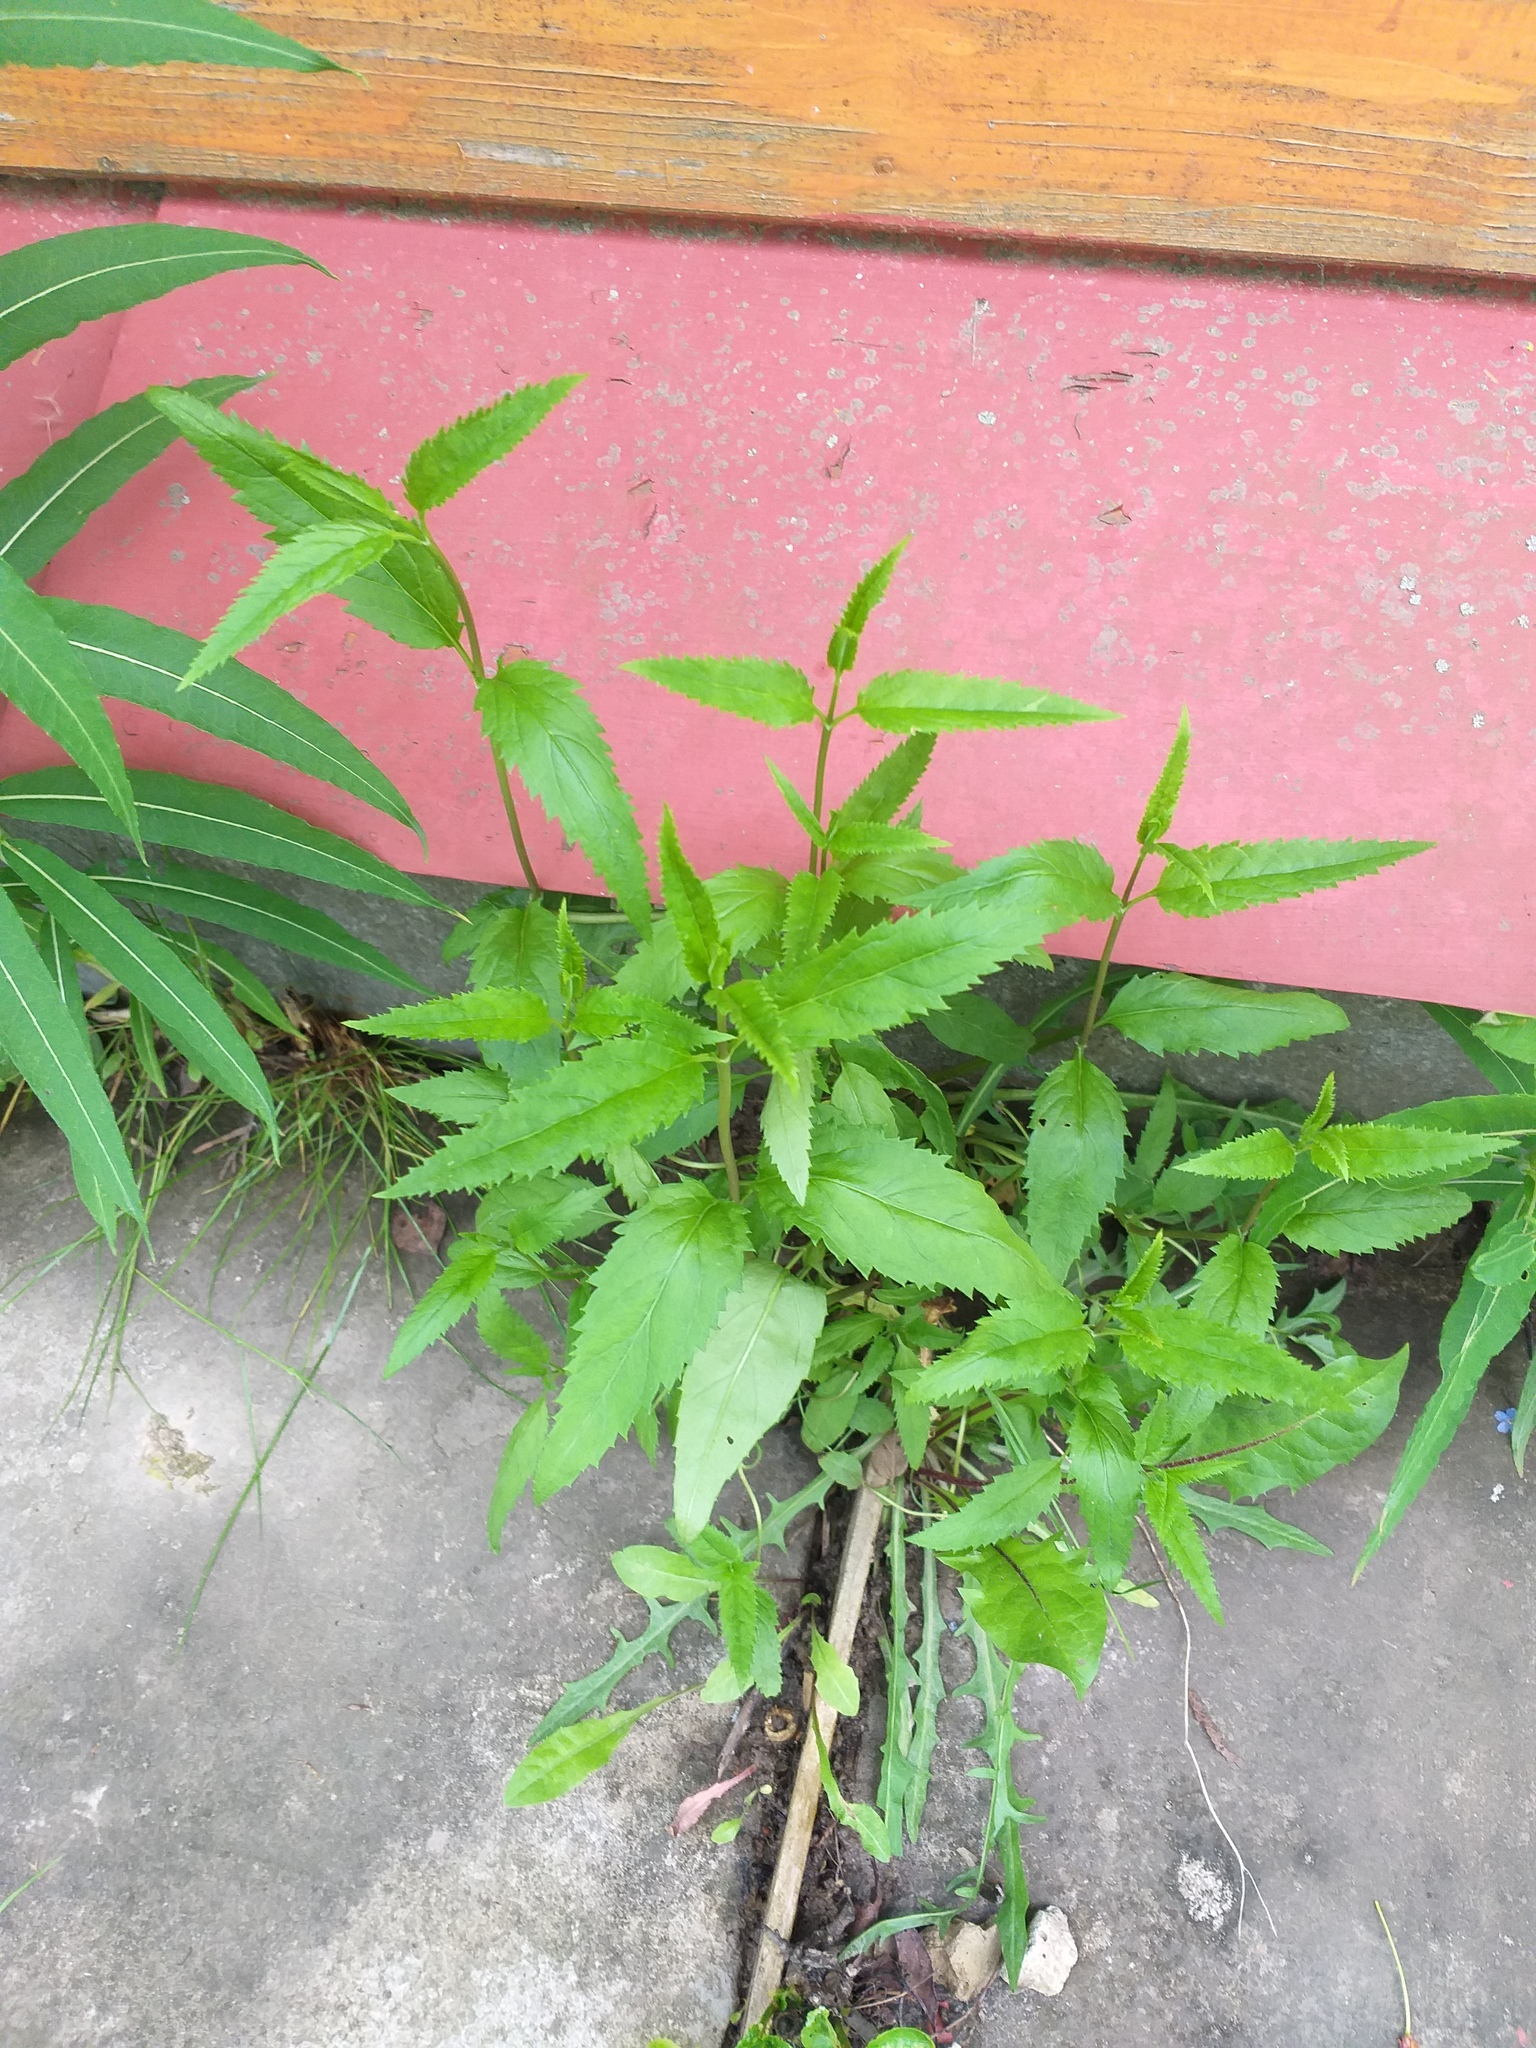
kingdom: Plantae
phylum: Tracheophyta
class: Magnoliopsida
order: Lamiales
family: Plantaginaceae
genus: Veronica
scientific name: Veronica longifolia
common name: Garden speedwell
